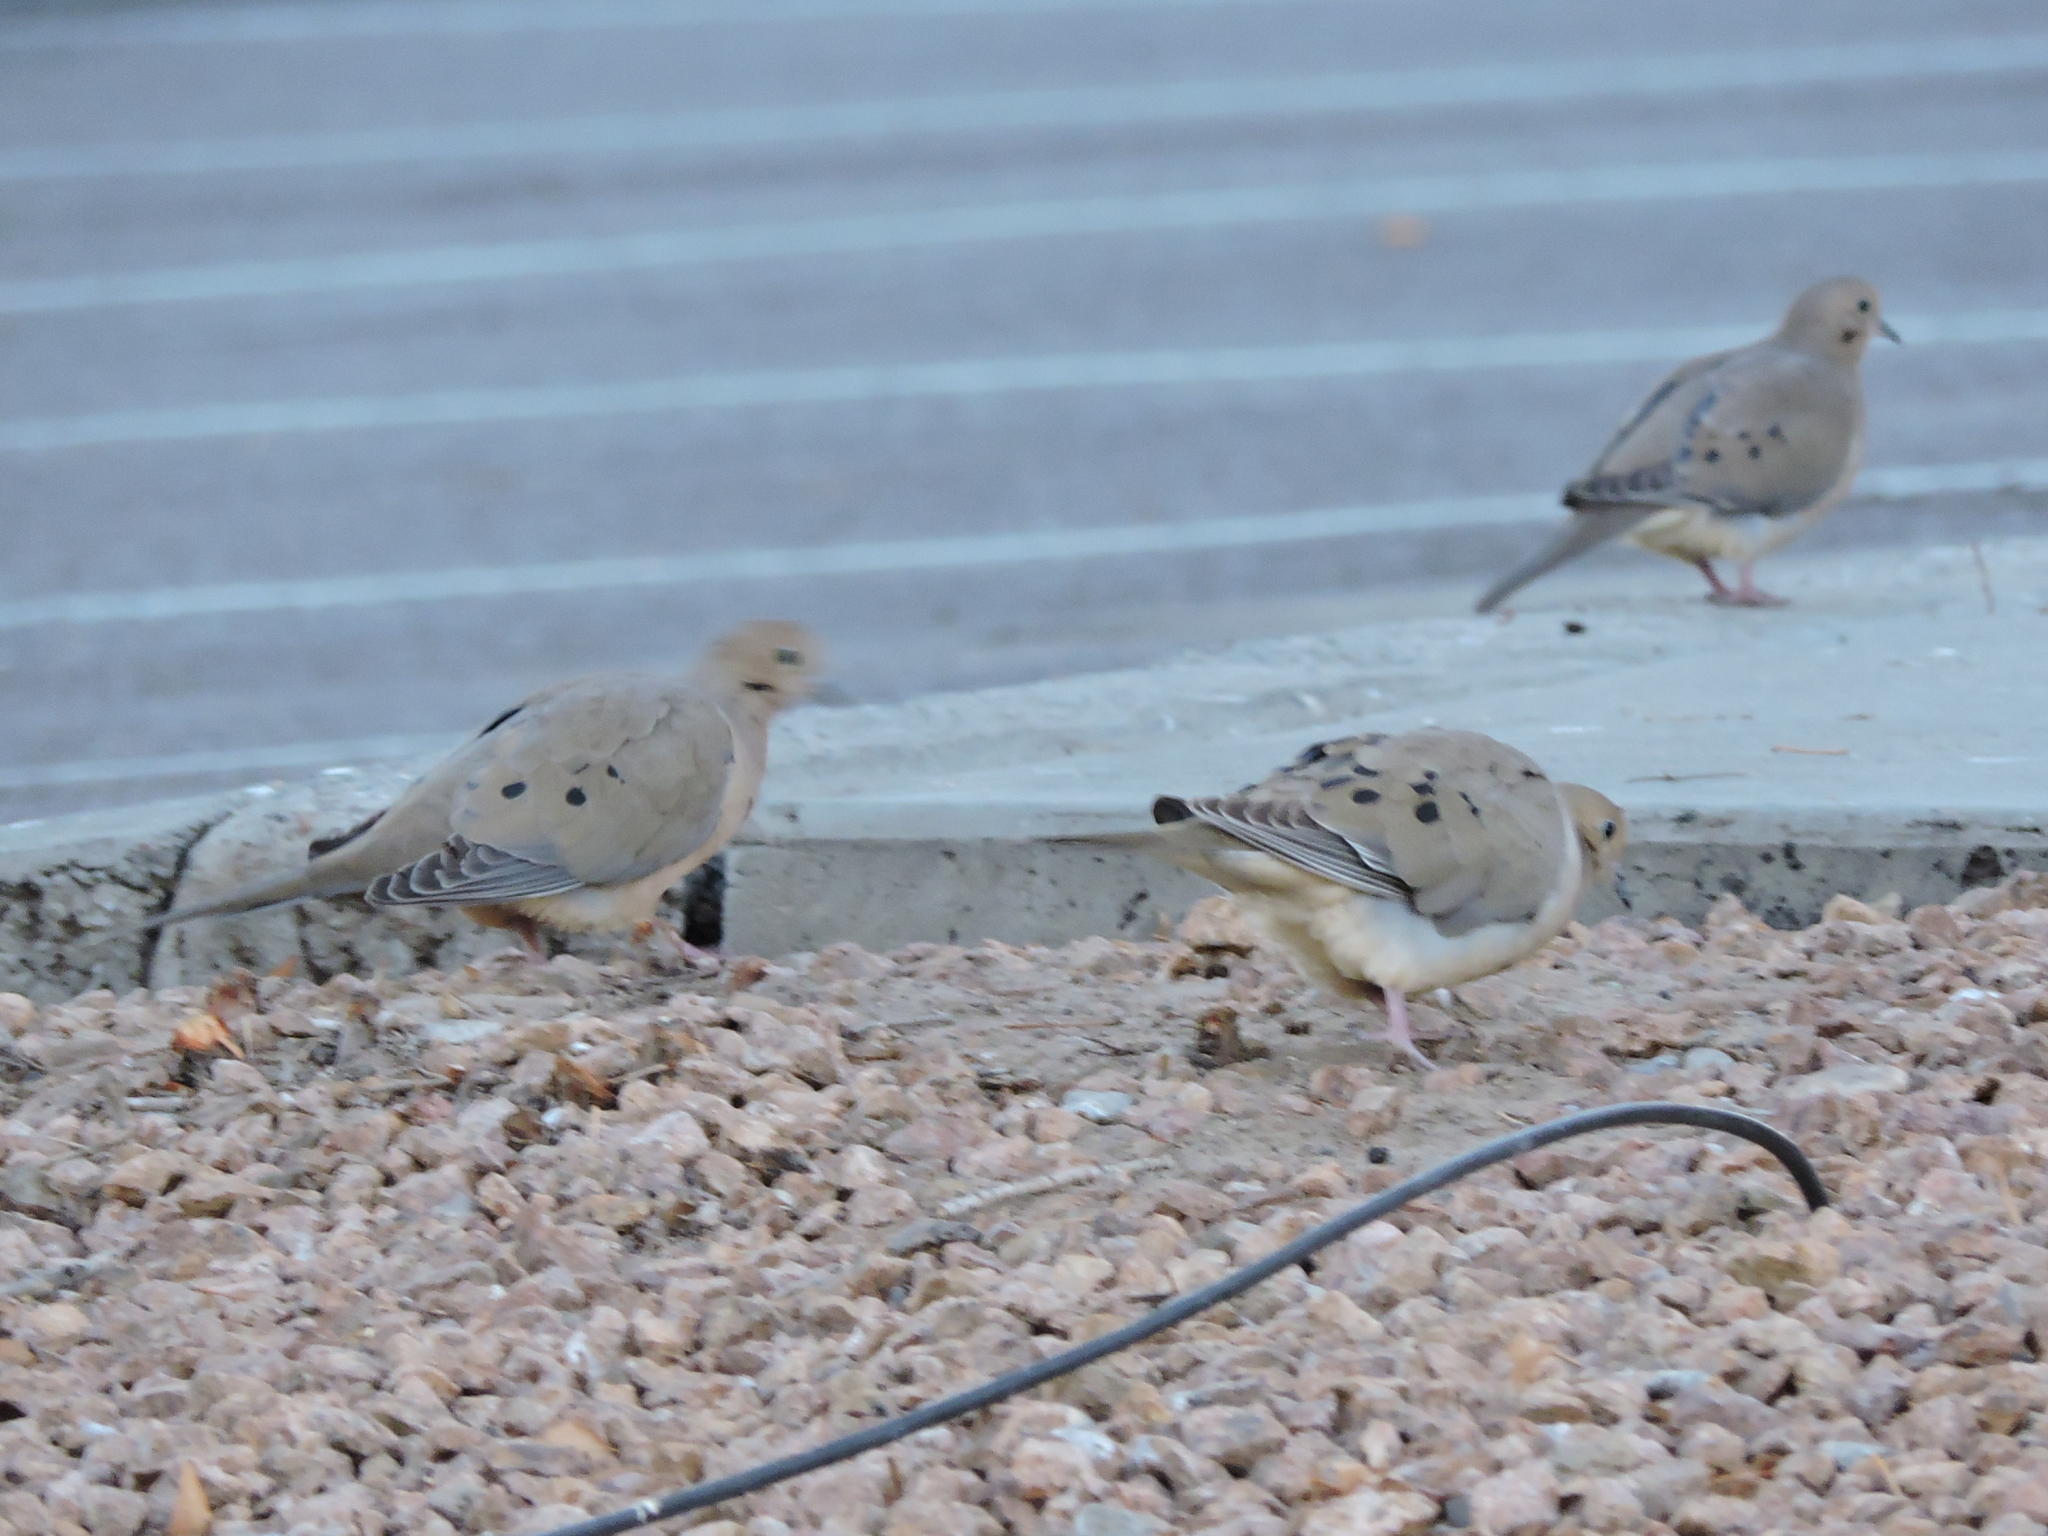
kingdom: Animalia
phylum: Chordata
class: Aves
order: Columbiformes
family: Columbidae
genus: Zenaida
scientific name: Zenaida macroura
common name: Mourning dove
